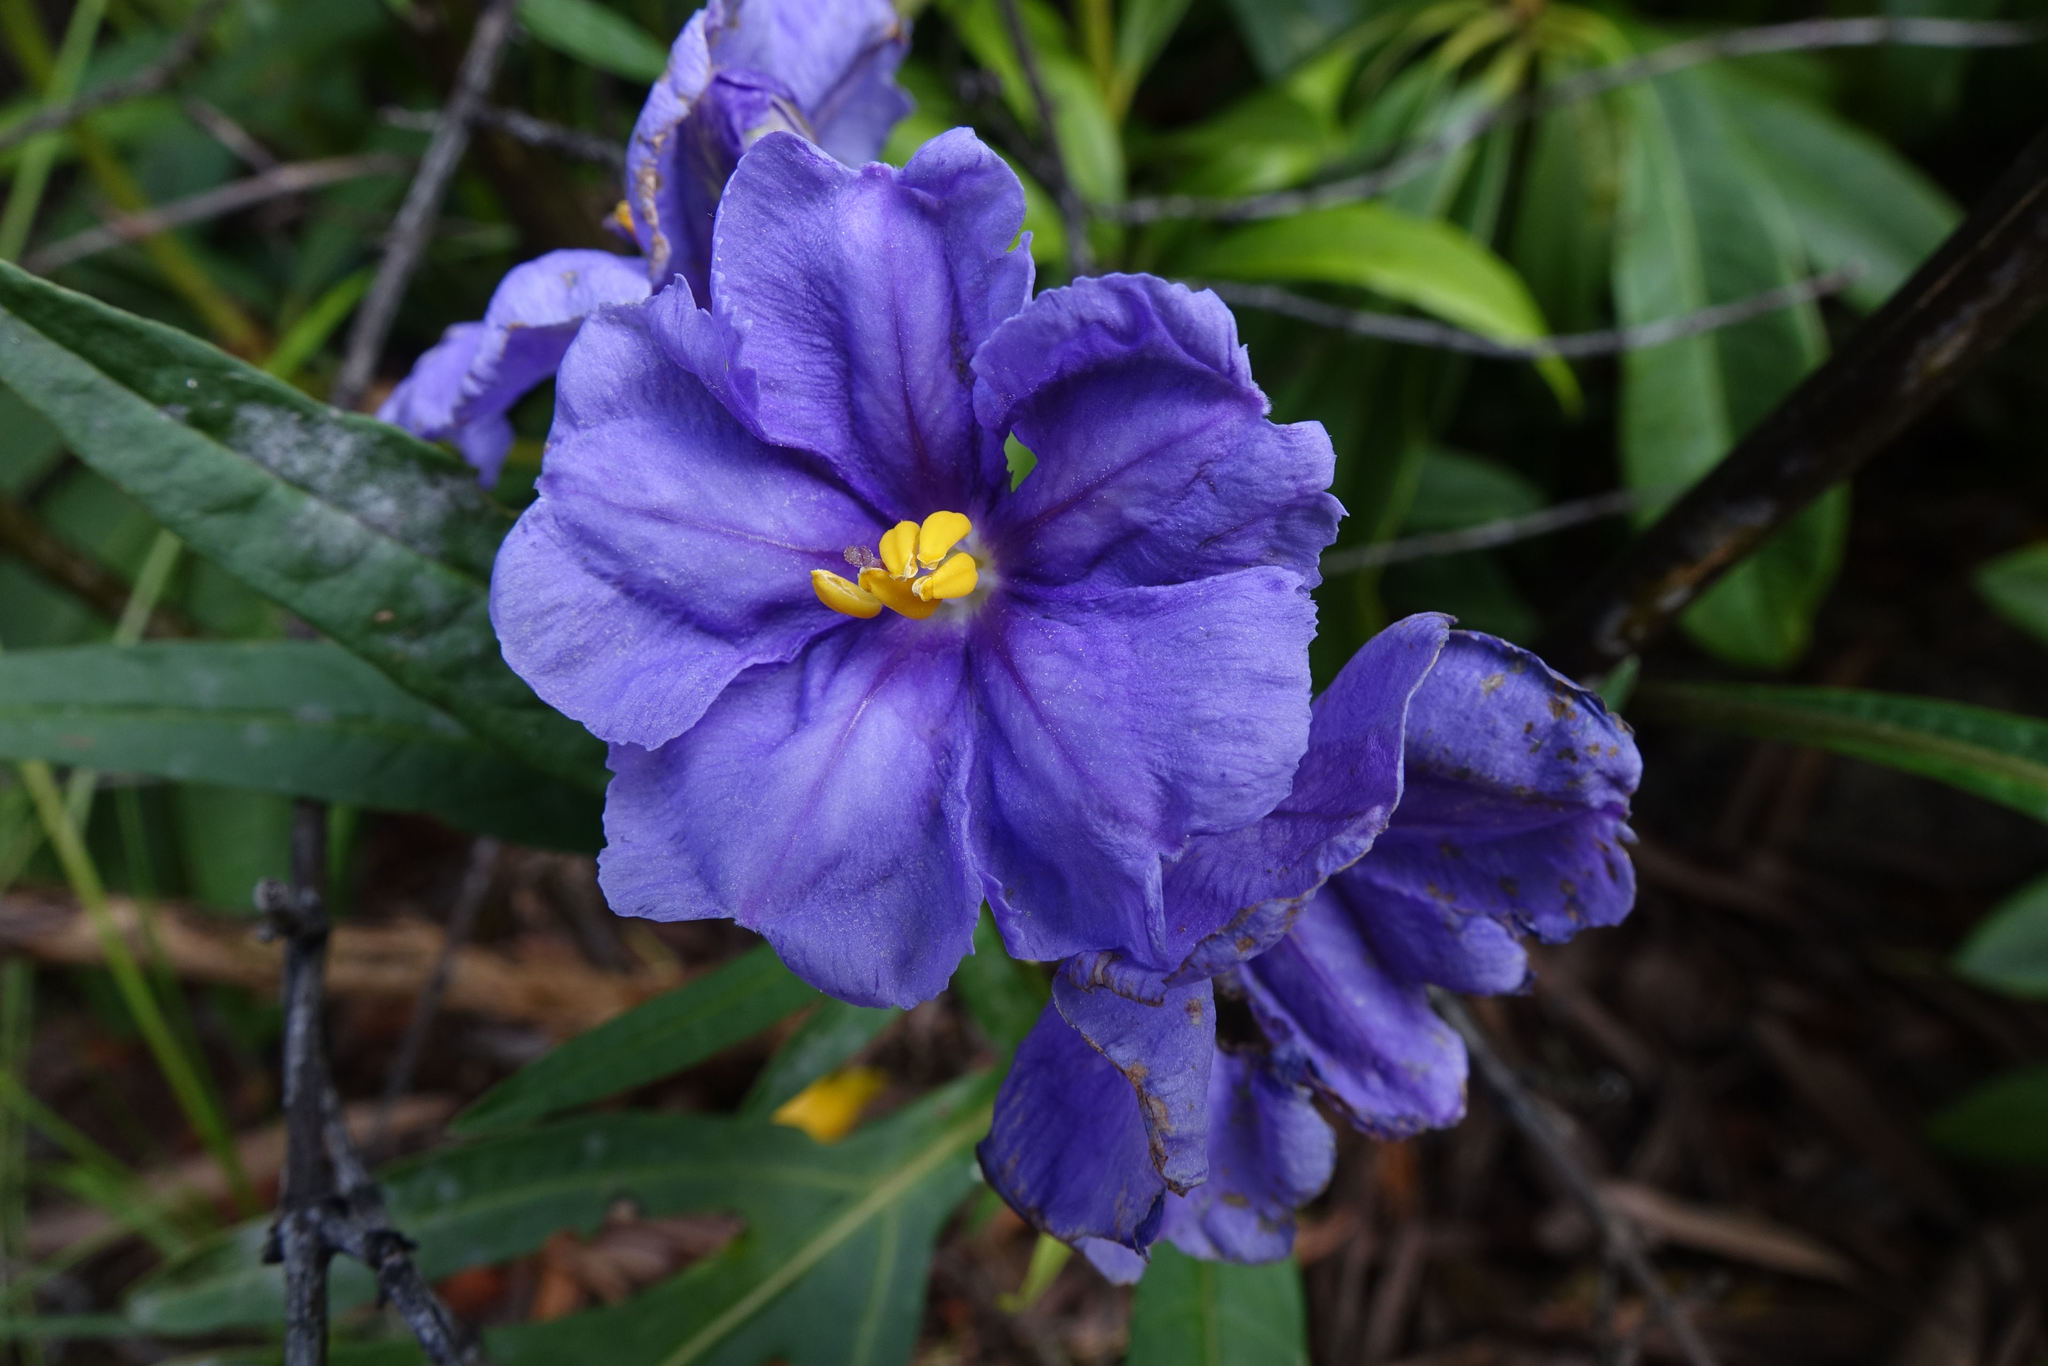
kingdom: Plantae
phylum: Tracheophyta
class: Magnoliopsida
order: Solanales
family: Solanaceae
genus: Solanum
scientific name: Solanum laciniatum
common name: Kangaroo-apple
